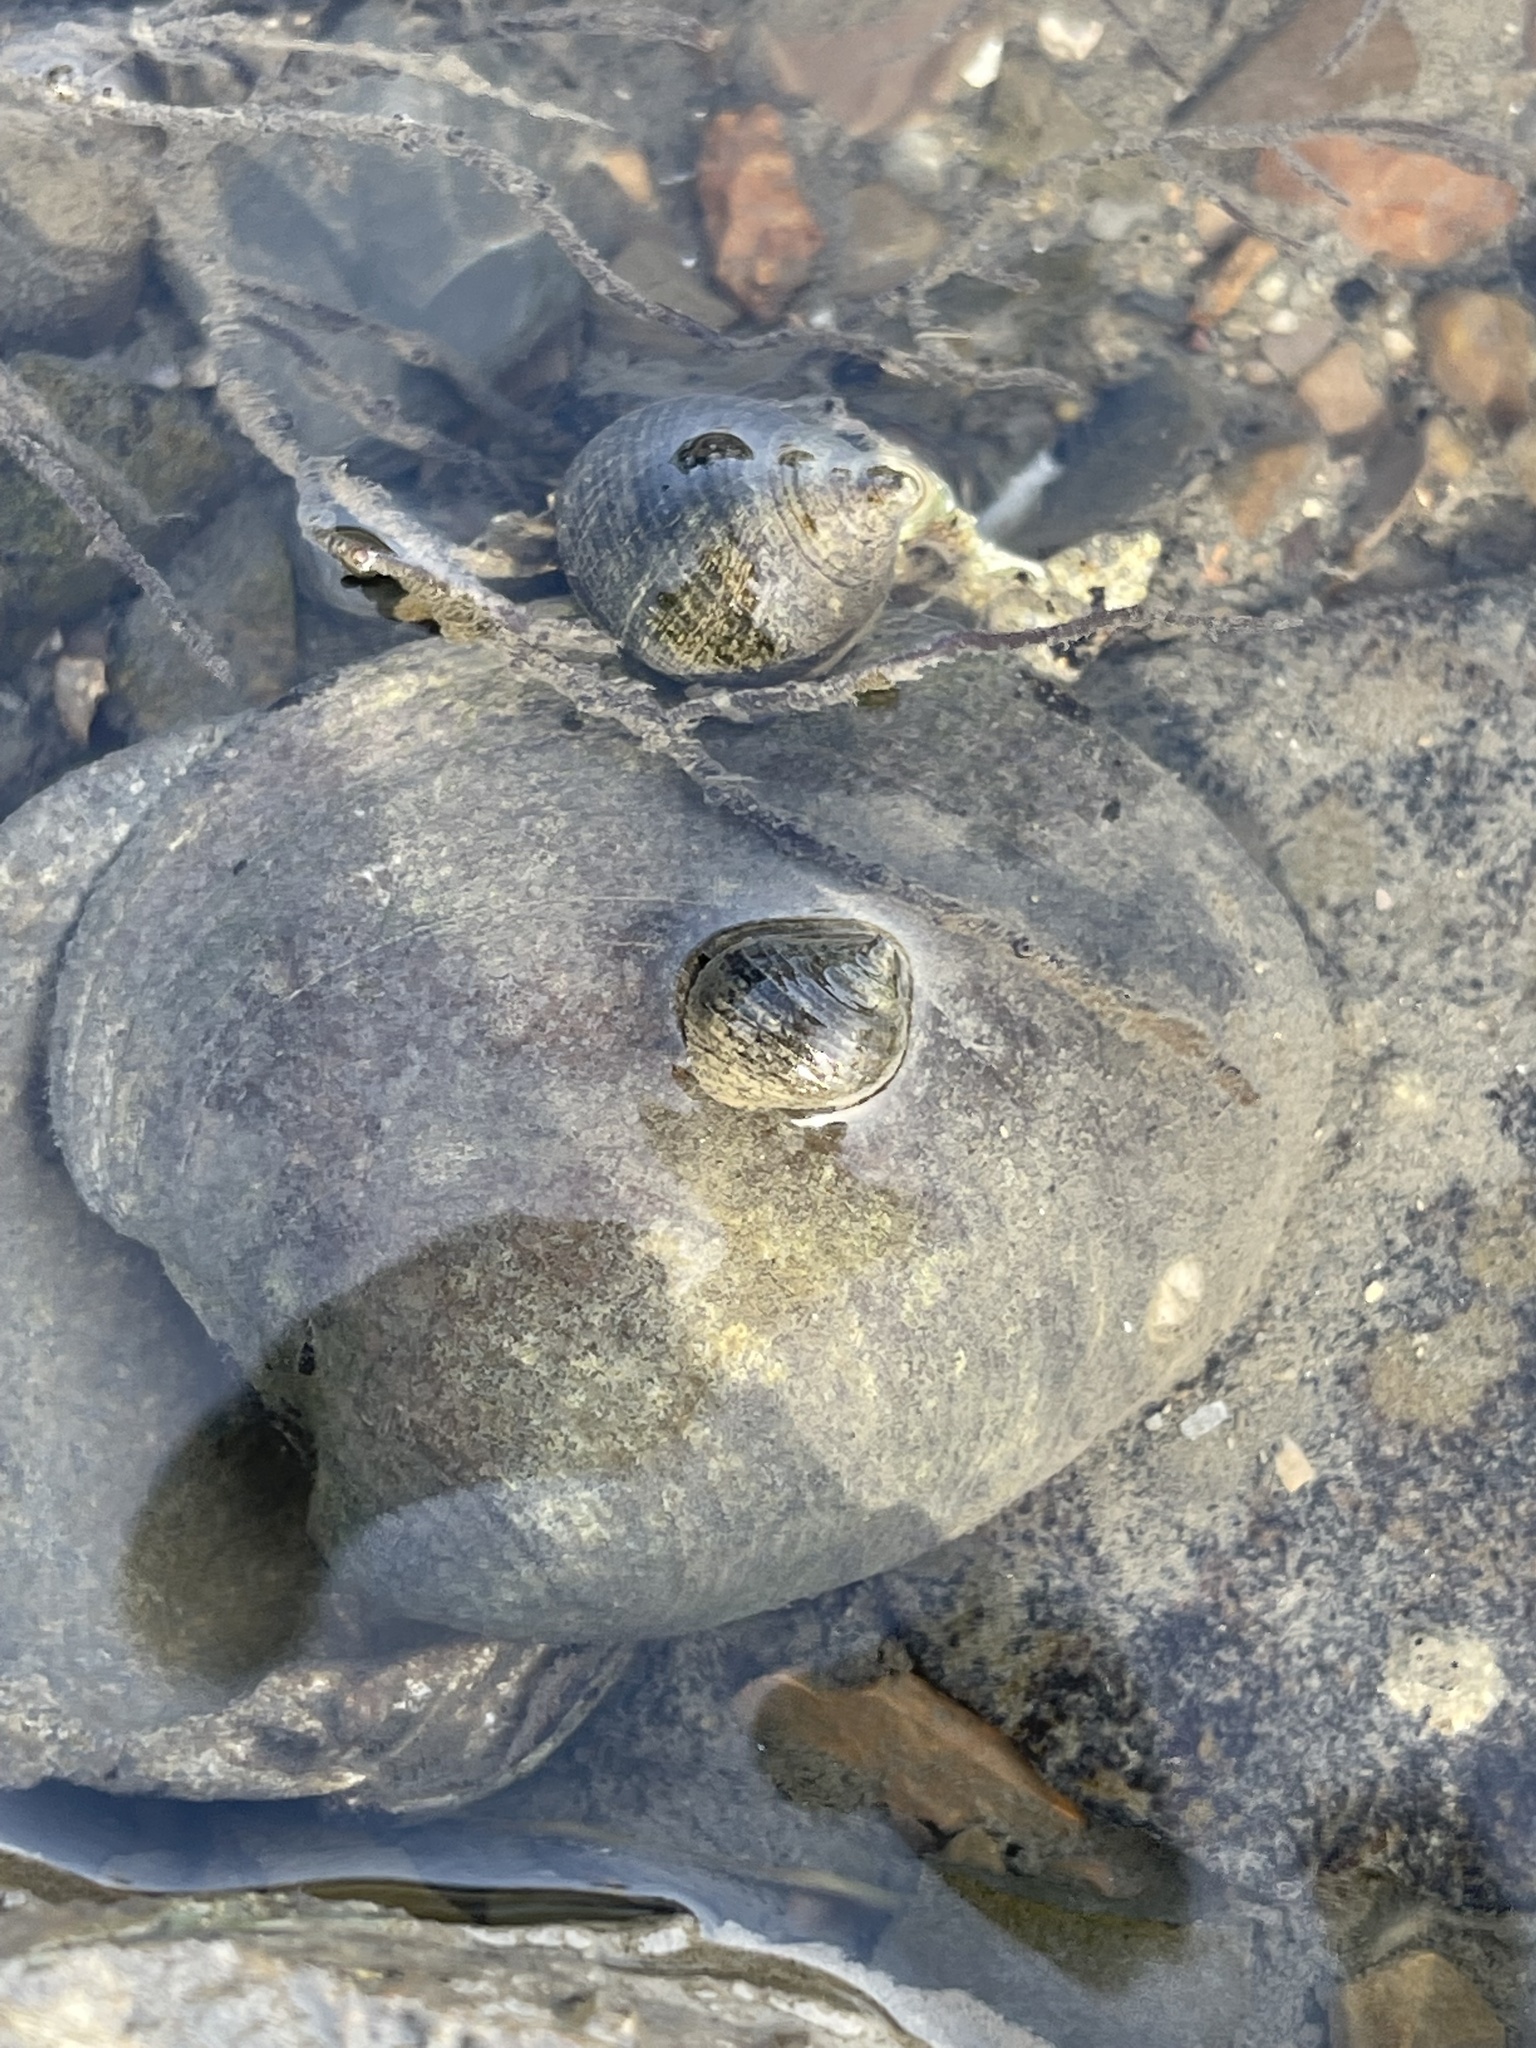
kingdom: Animalia
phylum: Mollusca
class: Gastropoda
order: Littorinimorpha
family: Littorinidae
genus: Littorina
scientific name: Littorina littorea
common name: Common periwinkle
